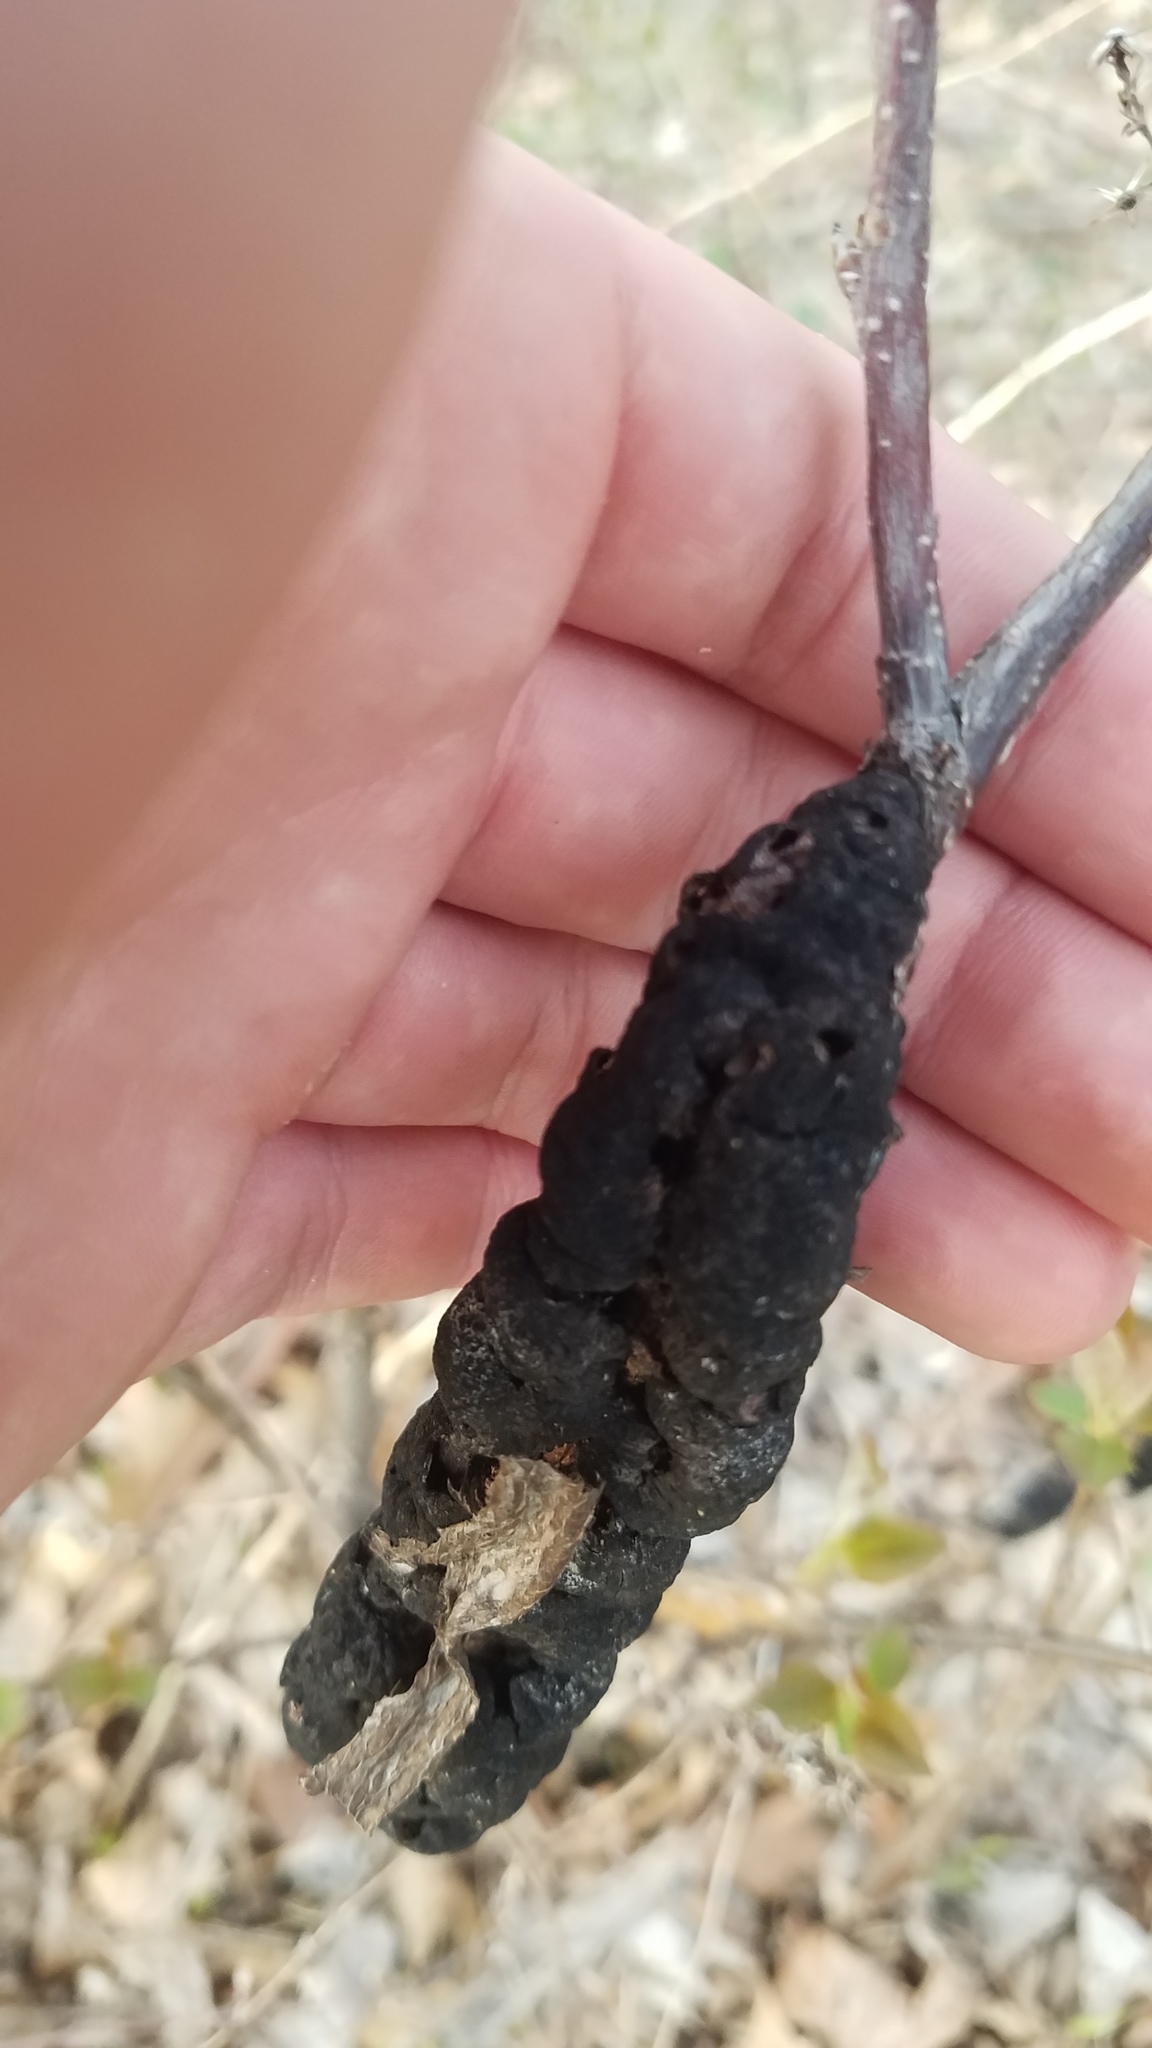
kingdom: Fungi
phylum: Ascomycota
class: Dothideomycetes
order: Venturiales
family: Venturiaceae
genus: Apiosporina
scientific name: Apiosporina morbosa
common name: Black knot
